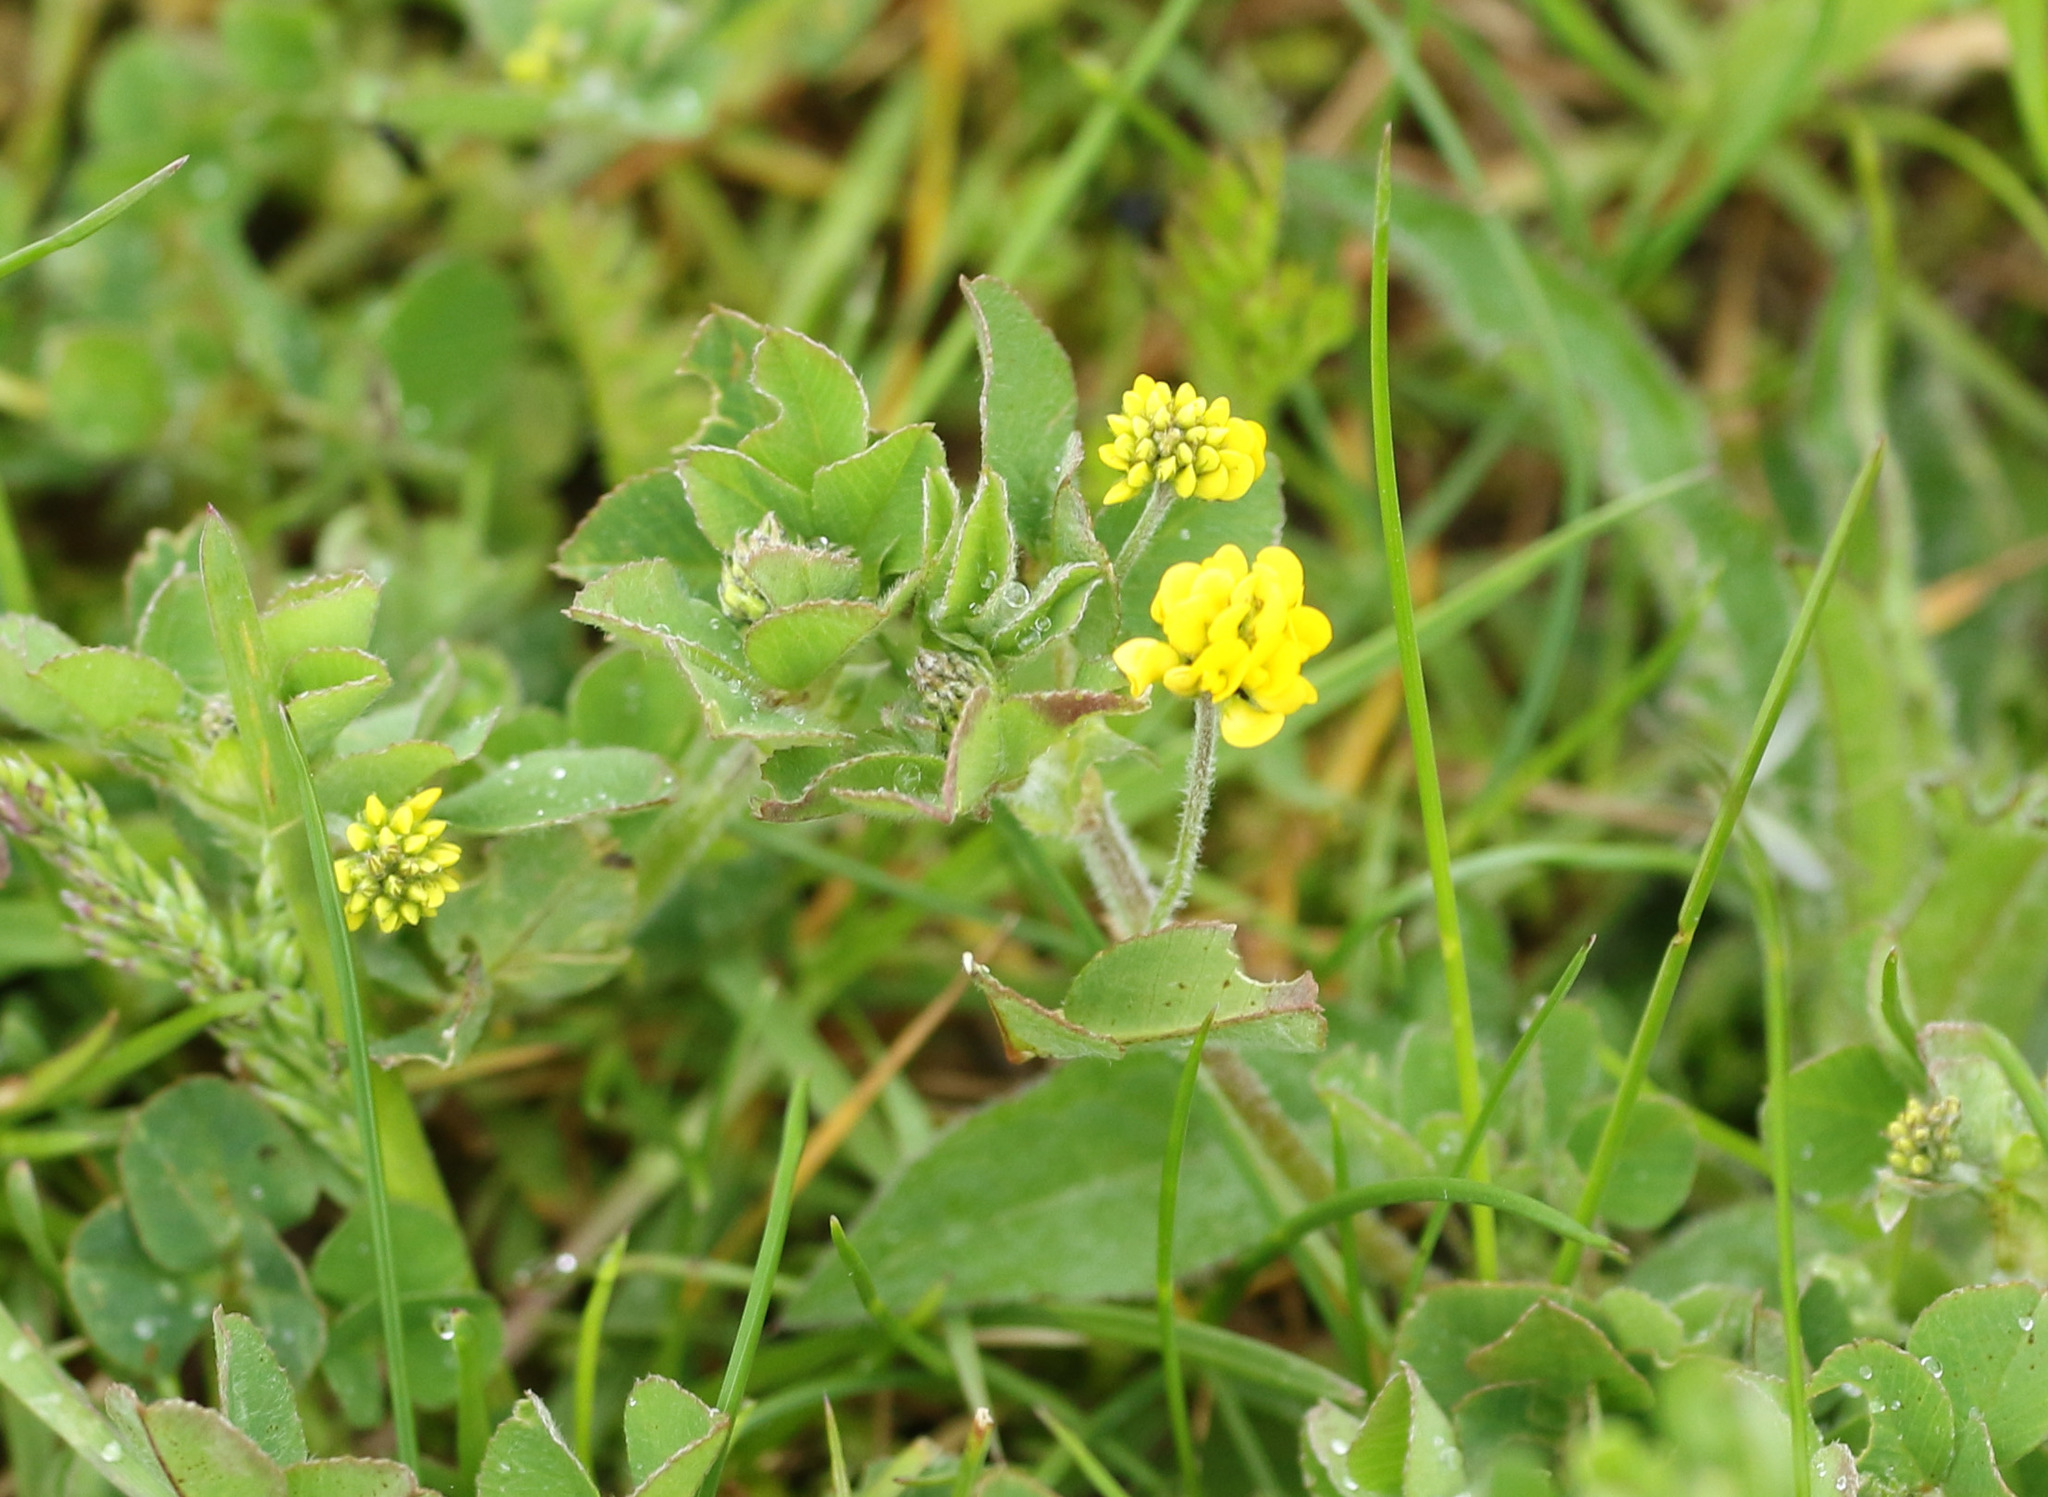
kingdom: Plantae
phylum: Tracheophyta
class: Magnoliopsida
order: Fabales
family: Fabaceae
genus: Medicago
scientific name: Medicago lupulina
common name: Black medick
